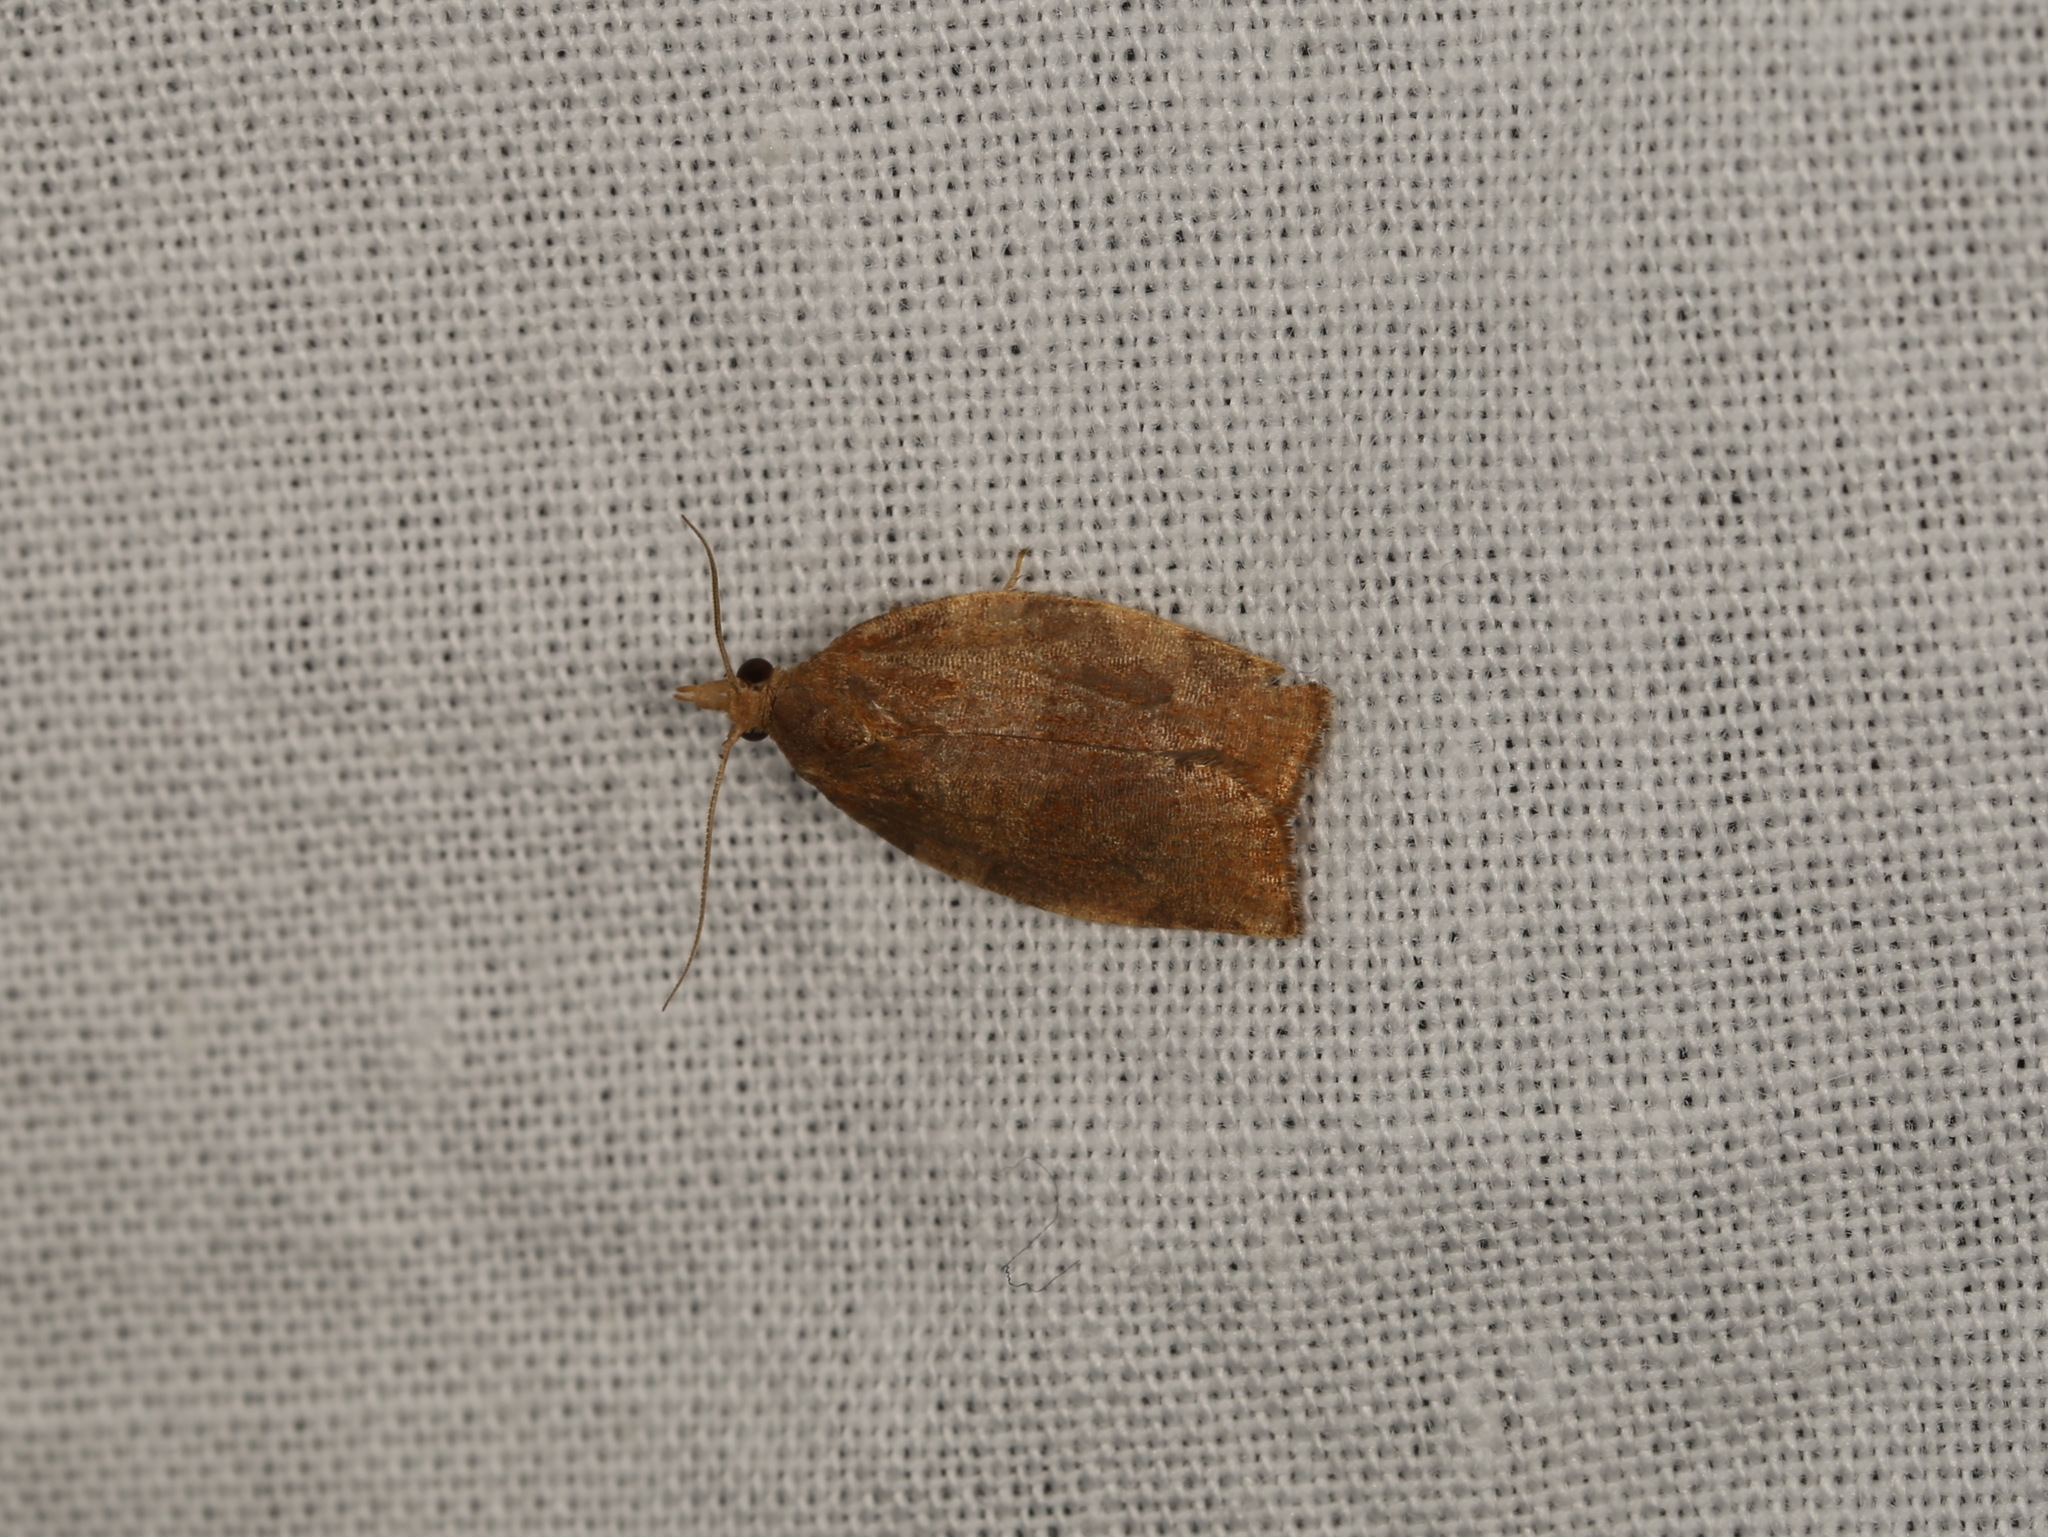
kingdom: Animalia
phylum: Arthropoda
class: Insecta
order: Lepidoptera
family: Tortricidae
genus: Pandemis
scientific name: Pandemis heparana
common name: Dark fruit-tree tortrix
